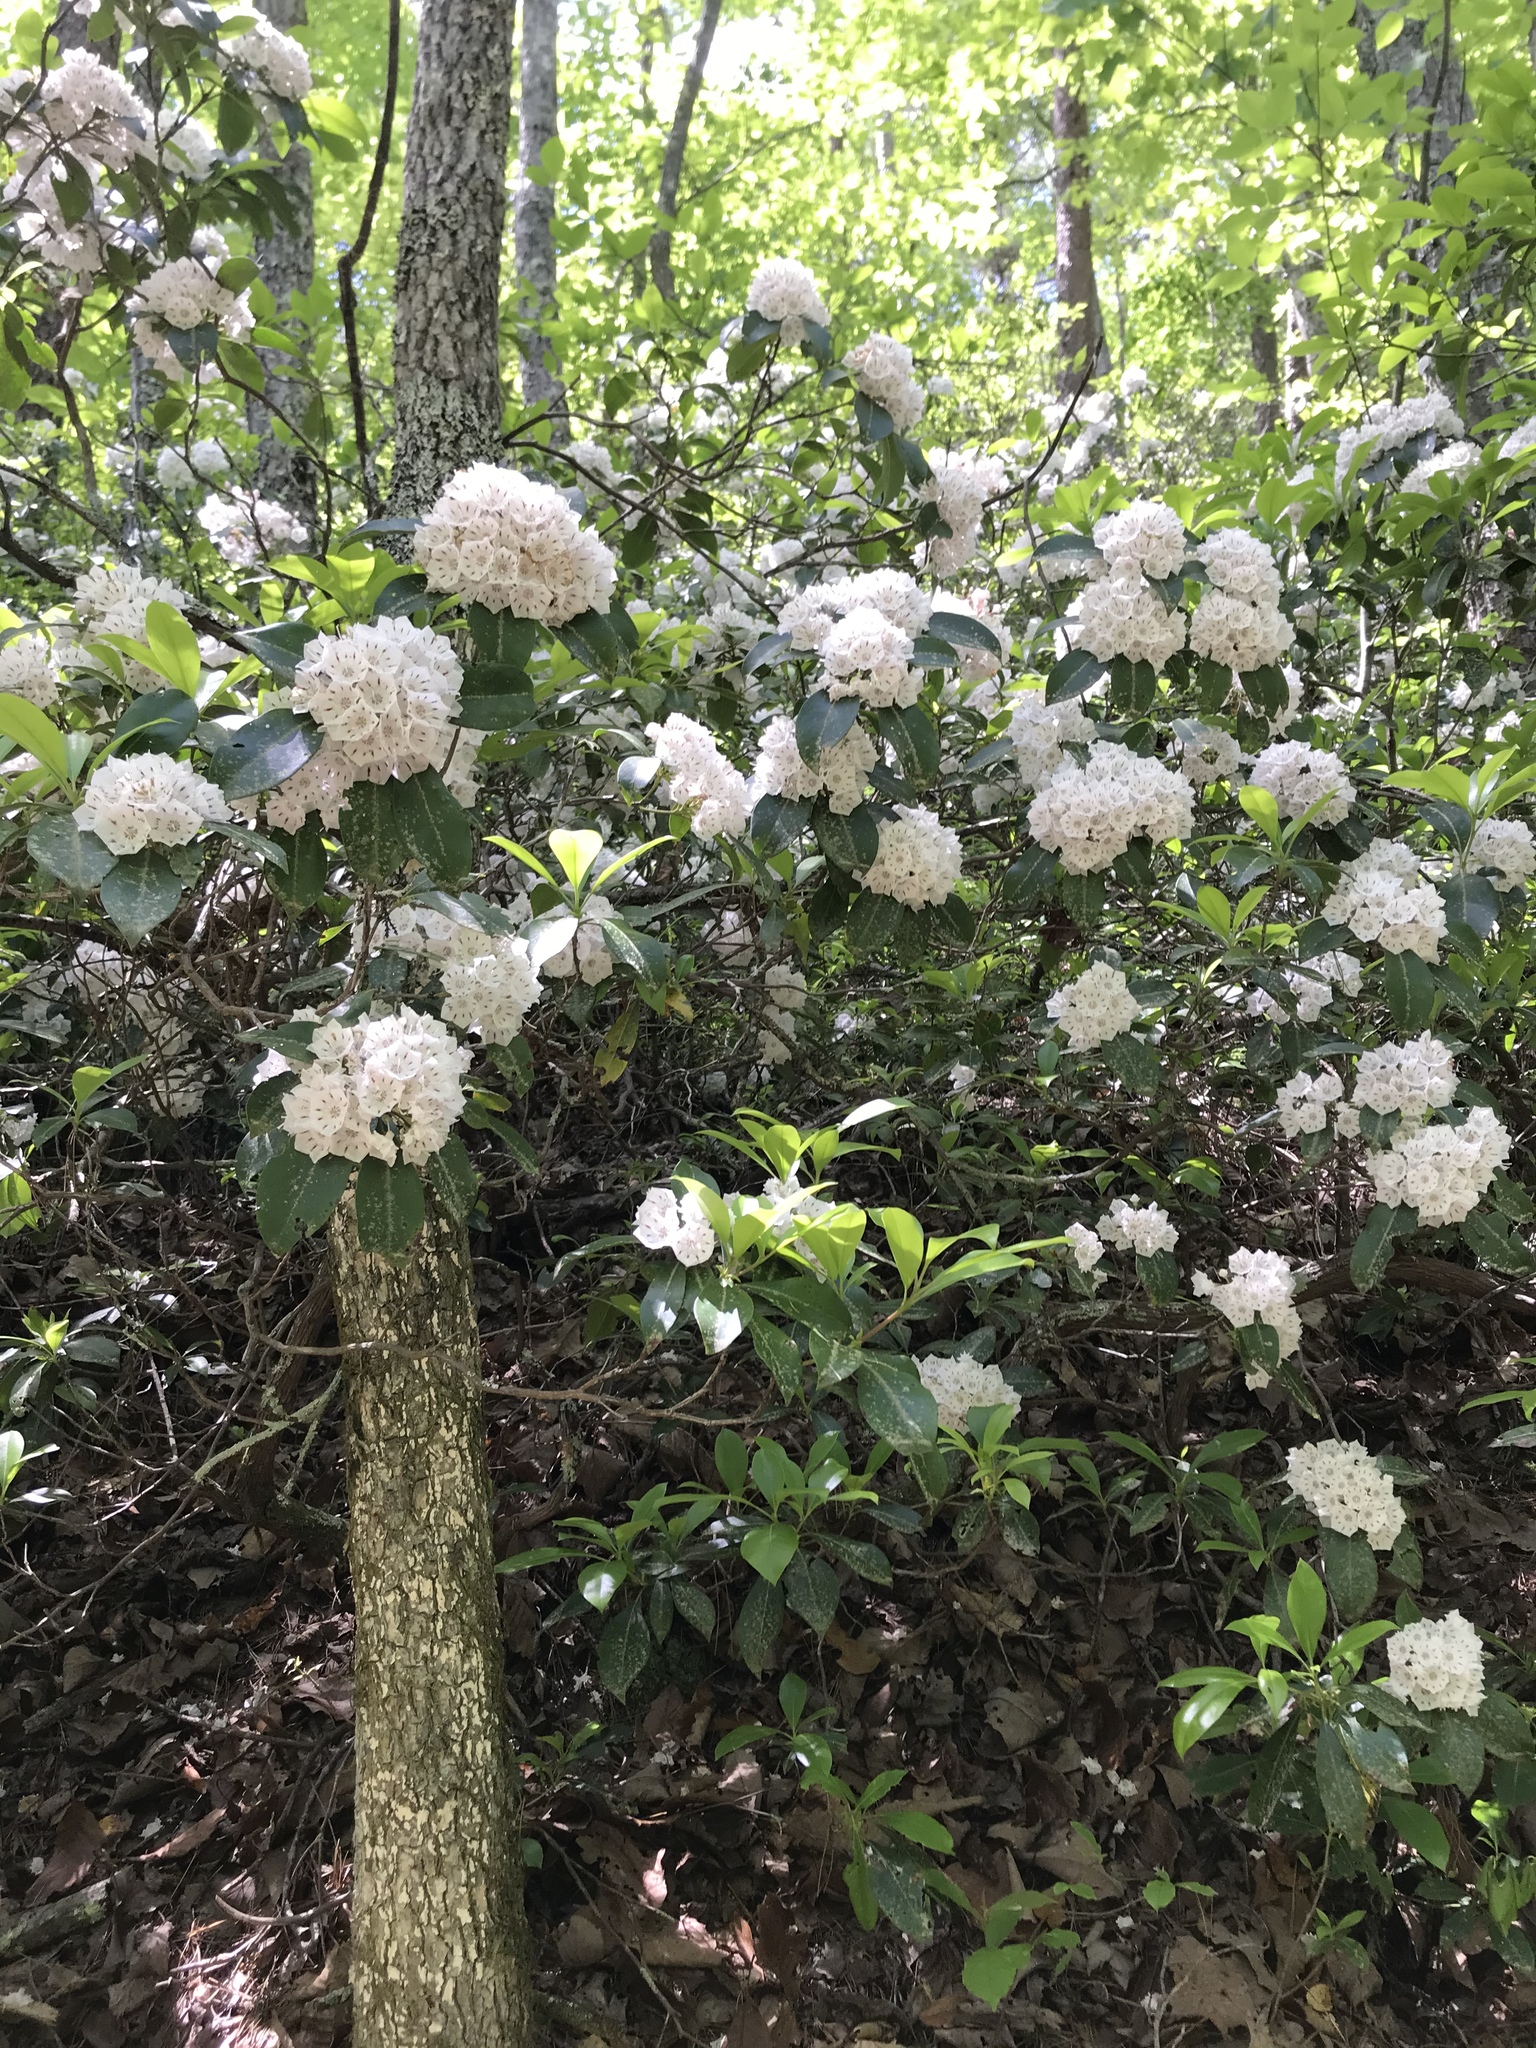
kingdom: Plantae
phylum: Tracheophyta
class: Magnoliopsida
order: Ericales
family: Ericaceae
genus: Kalmia
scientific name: Kalmia latifolia
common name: Mountain-laurel
